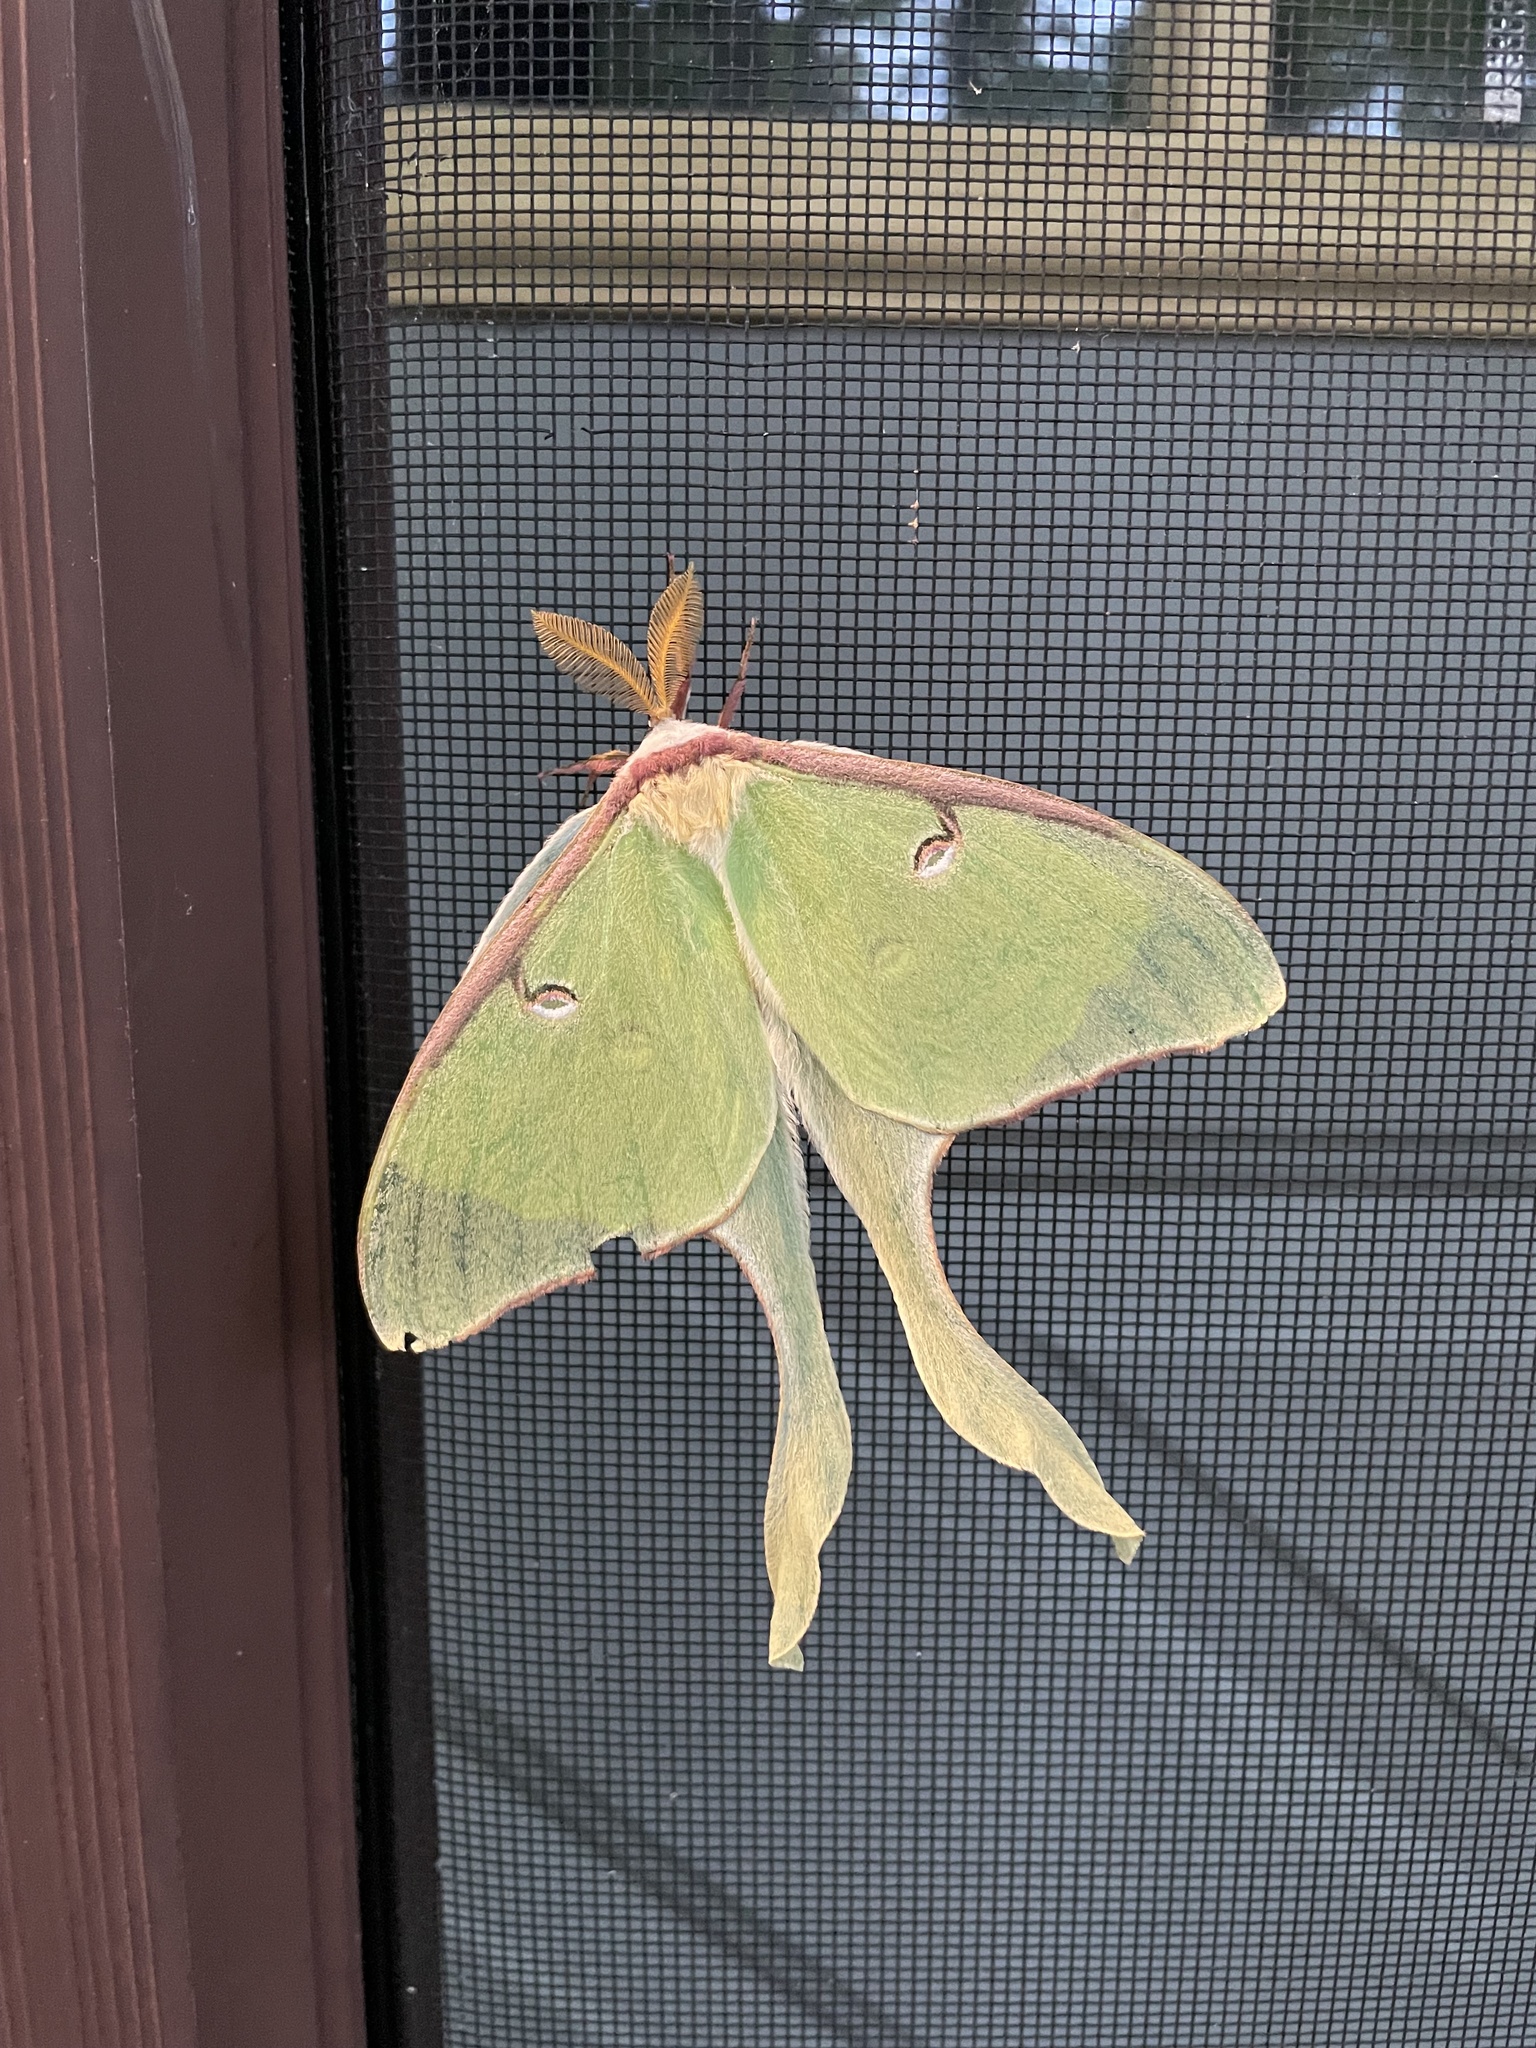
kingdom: Animalia
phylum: Arthropoda
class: Insecta
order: Lepidoptera
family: Saturniidae
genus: Actias
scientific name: Actias luna
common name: Luna moth
